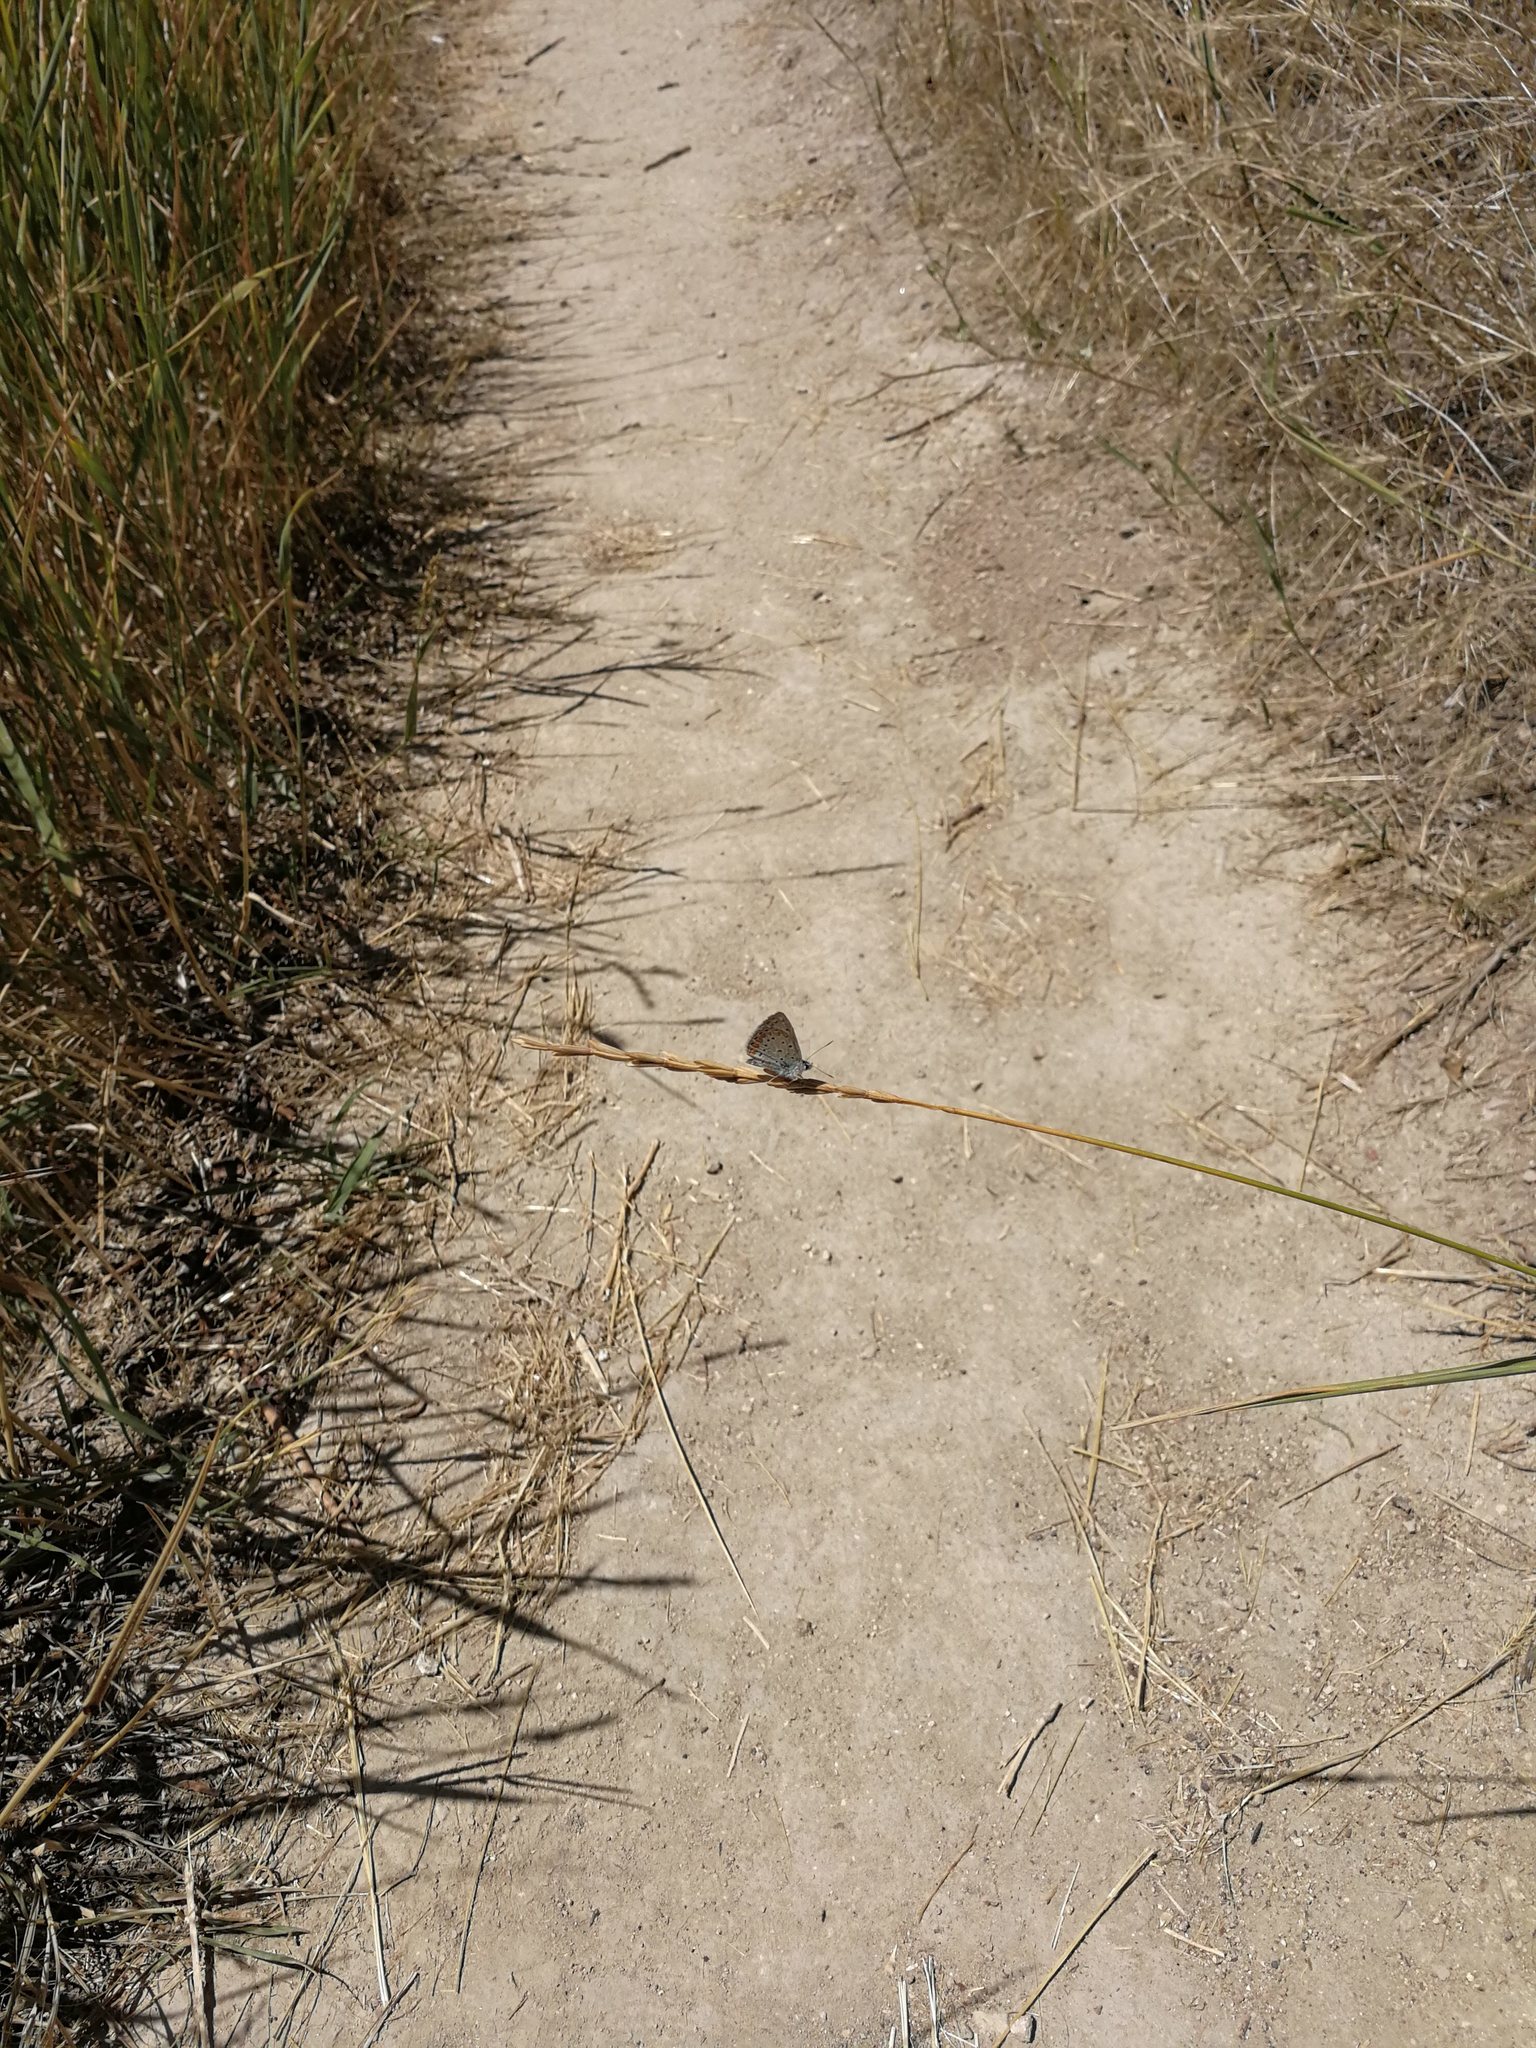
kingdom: Animalia
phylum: Arthropoda
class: Insecta
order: Lepidoptera
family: Lycaenidae
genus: Polyommatus
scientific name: Polyommatus icarus
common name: Common blue
